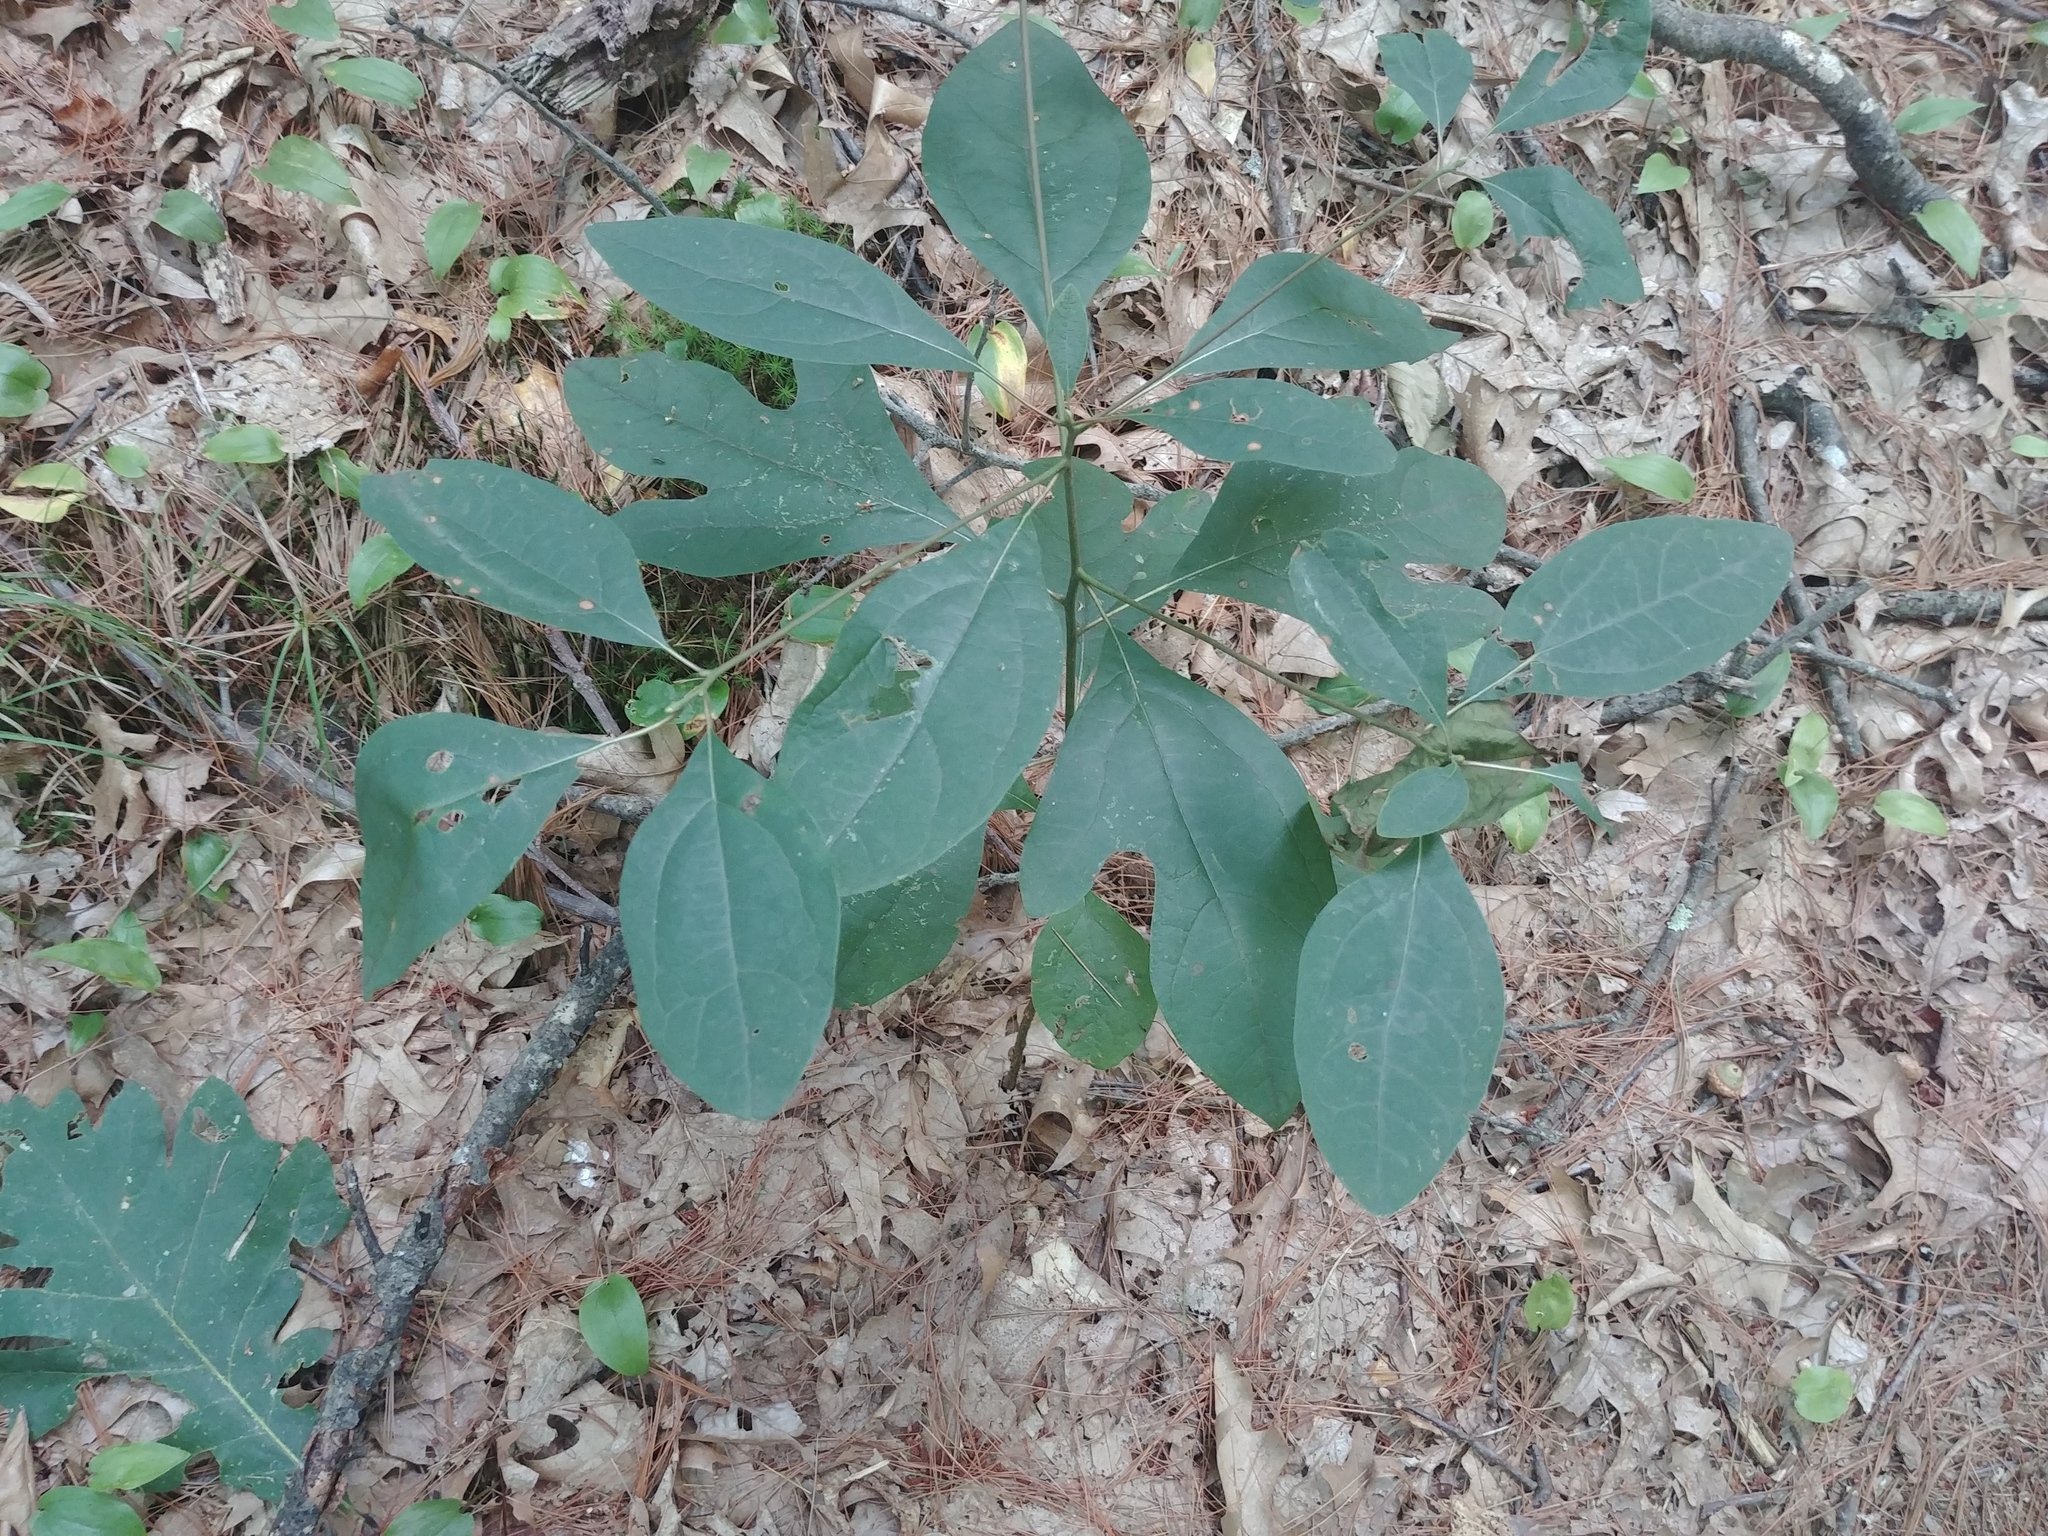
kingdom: Plantae
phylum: Tracheophyta
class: Magnoliopsida
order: Laurales
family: Lauraceae
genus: Sassafras
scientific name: Sassafras albidum
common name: Sassafras
